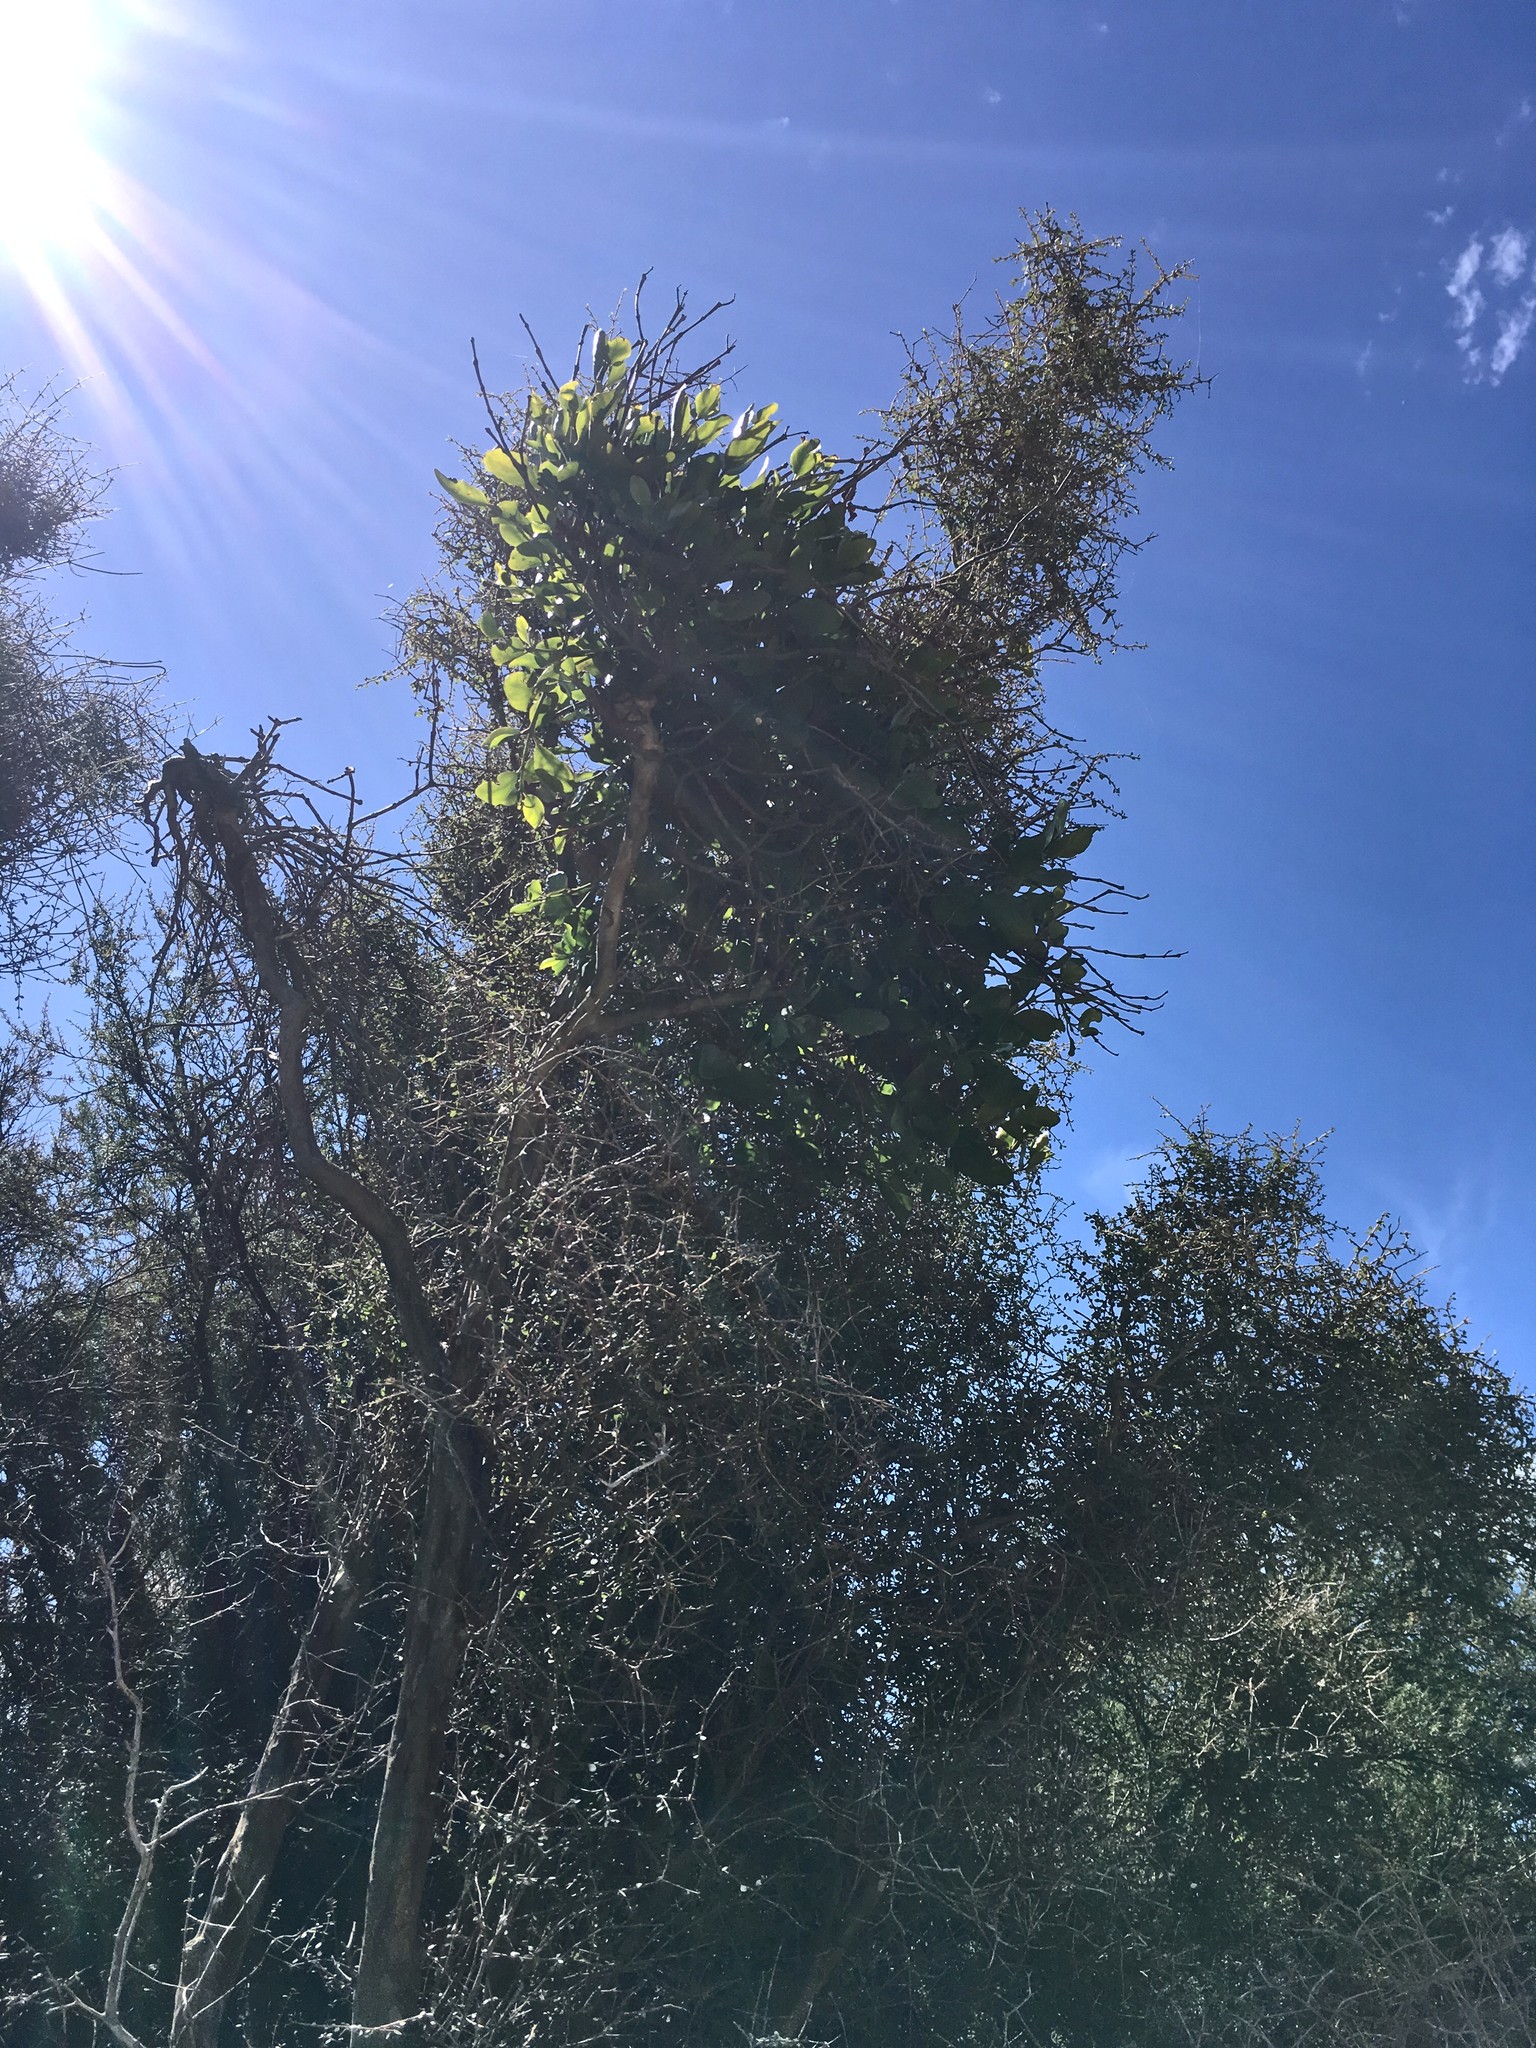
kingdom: Plantae
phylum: Tracheophyta
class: Magnoliopsida
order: Santalales
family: Loranthaceae
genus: Ileostylus
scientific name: Ileostylus micranthus
